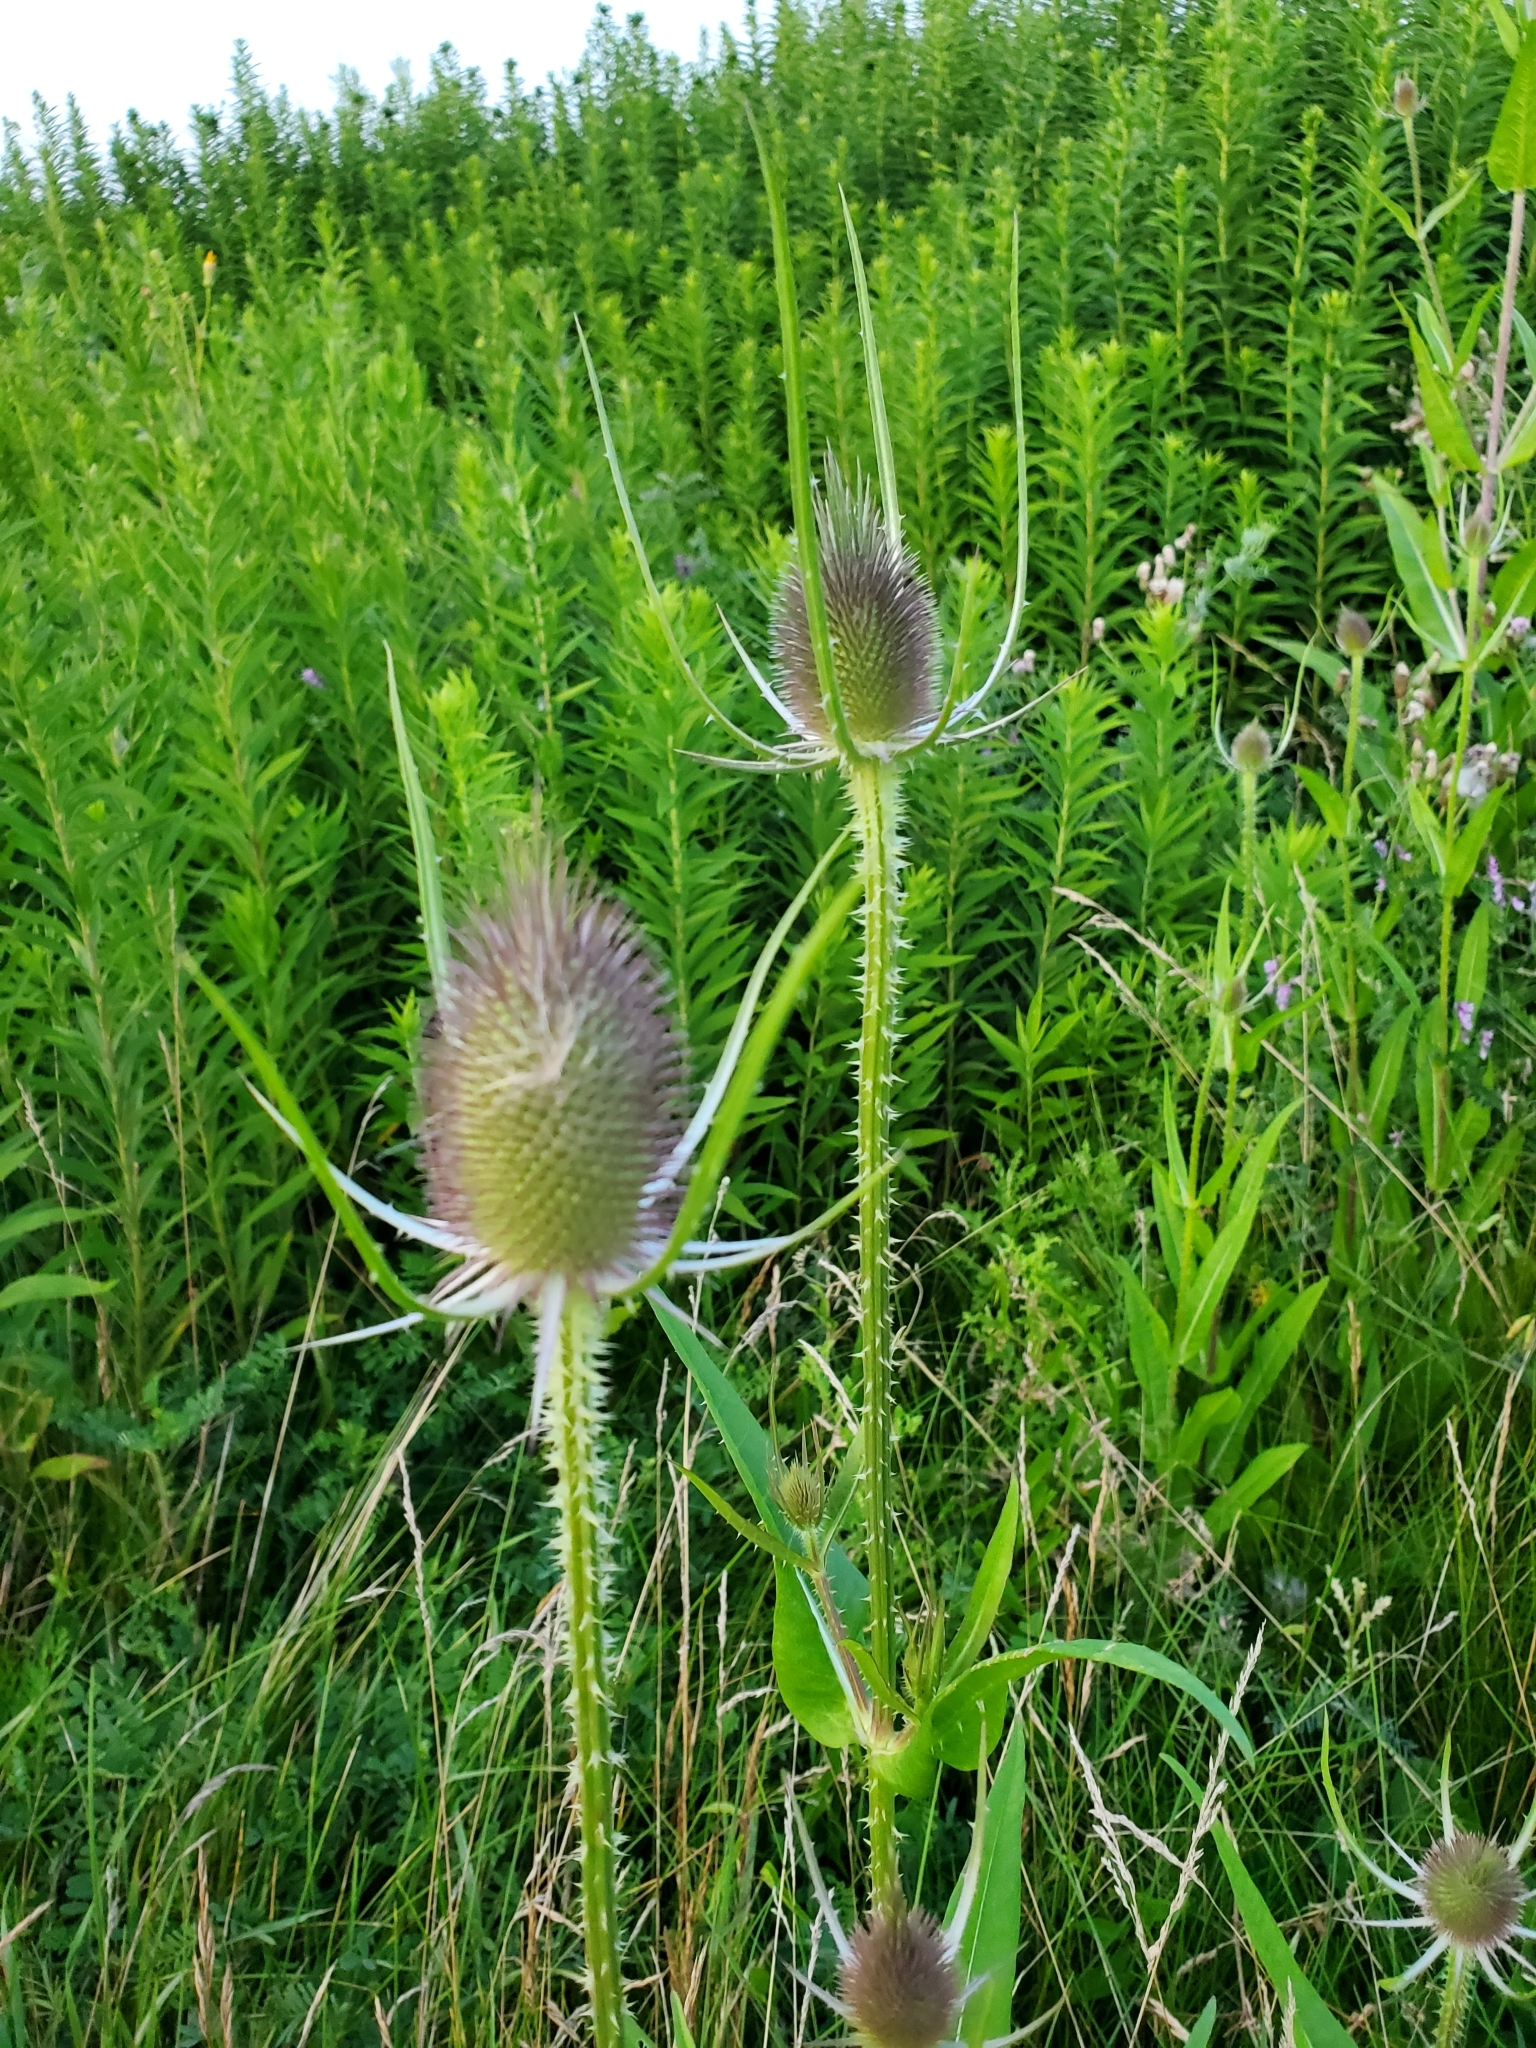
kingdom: Plantae
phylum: Tracheophyta
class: Magnoliopsida
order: Dipsacales
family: Caprifoliaceae
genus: Dipsacus
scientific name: Dipsacus fullonum
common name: Teasel
